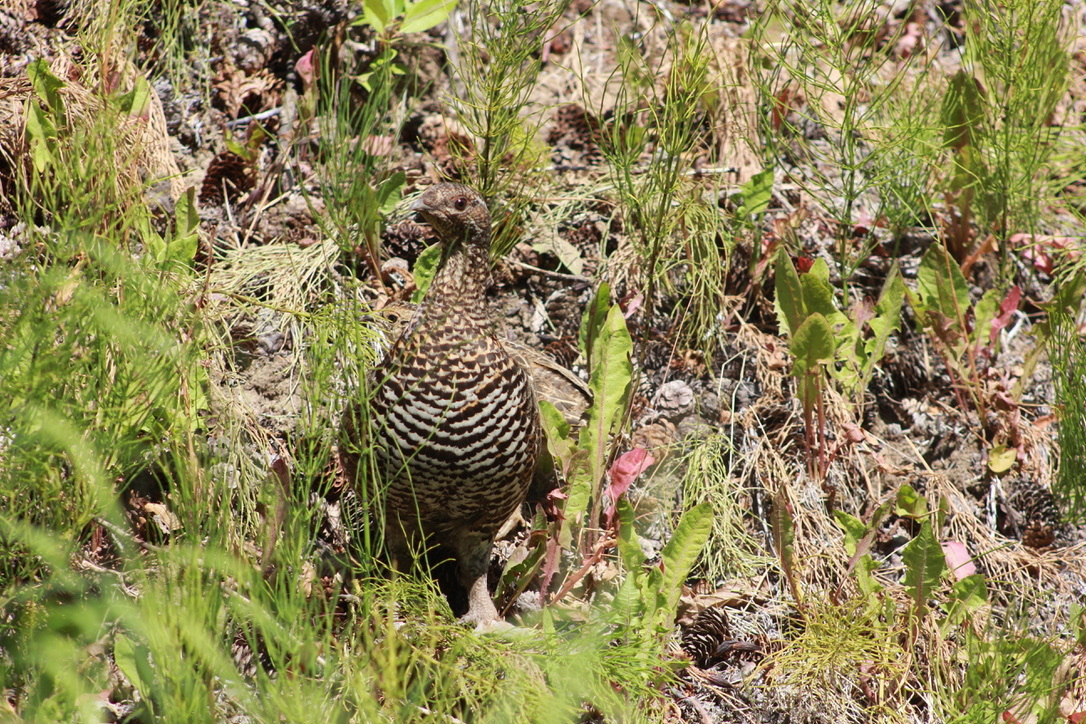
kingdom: Animalia
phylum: Chordata
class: Aves
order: Galliformes
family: Phasianidae
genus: Canachites
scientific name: Canachites canadensis
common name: Spruce grouse
